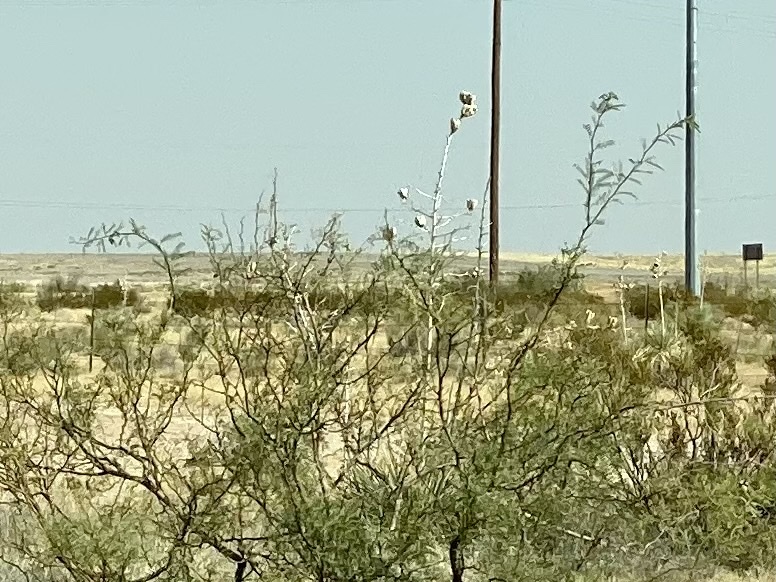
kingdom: Plantae
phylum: Tracheophyta
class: Magnoliopsida
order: Fabales
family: Fabaceae
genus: Prosopis
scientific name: Prosopis glandulosa
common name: Honey mesquite
